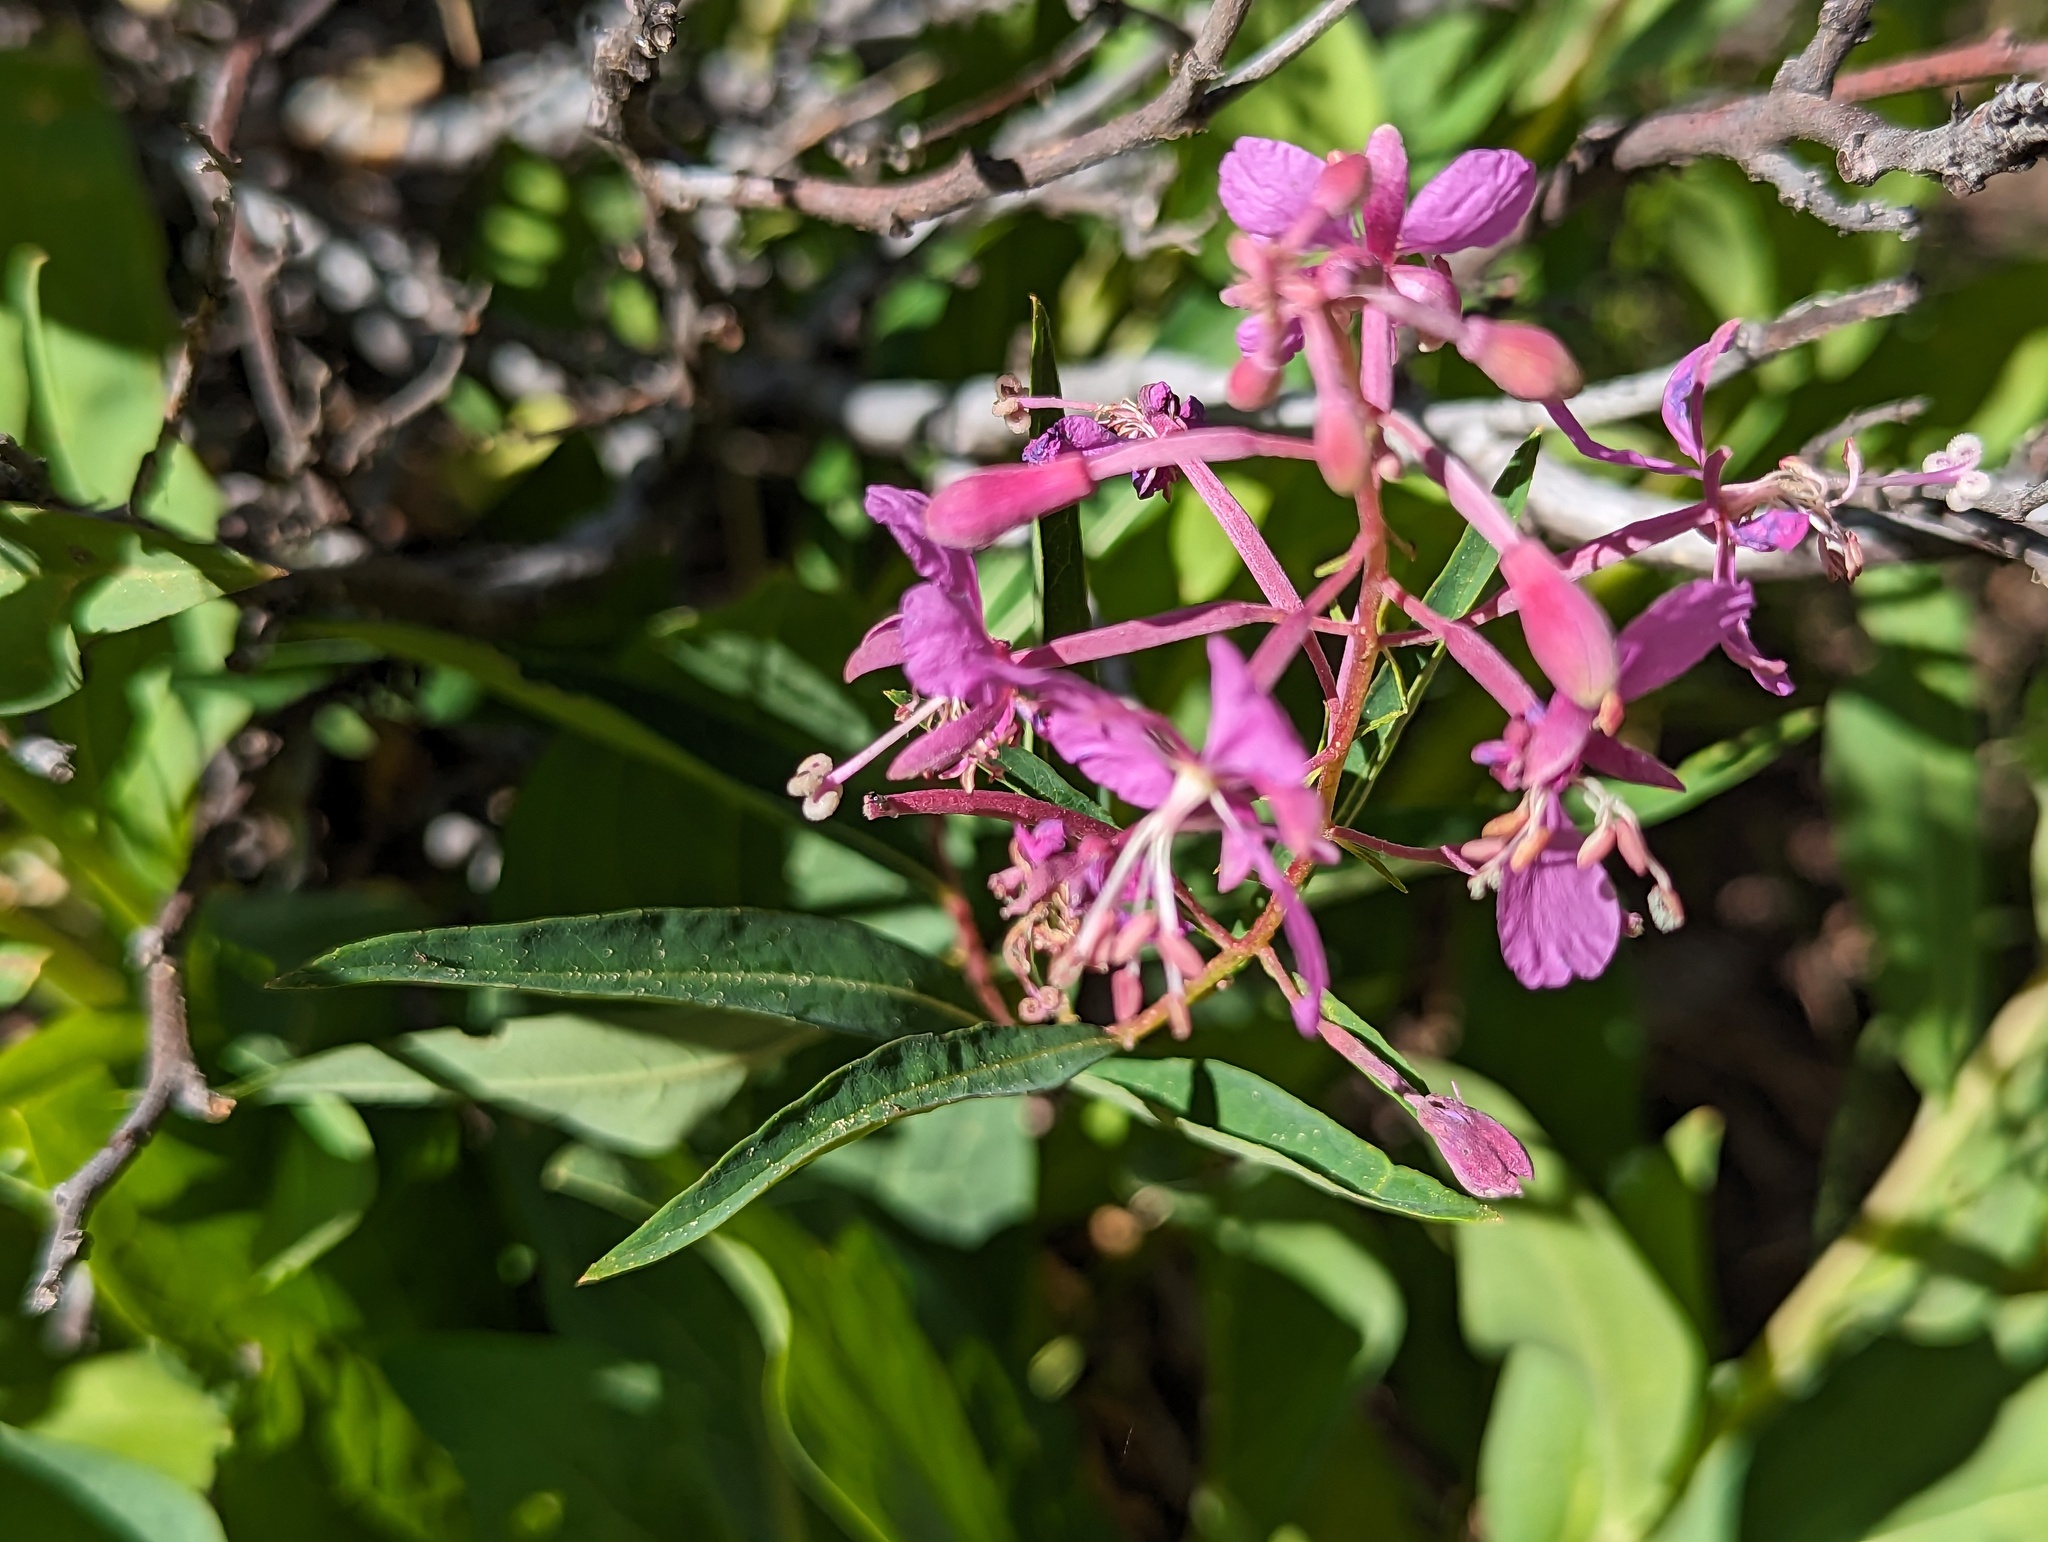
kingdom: Plantae
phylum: Tracheophyta
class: Magnoliopsida
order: Myrtales
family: Onagraceae
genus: Chamaenerion
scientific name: Chamaenerion angustifolium
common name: Fireweed
